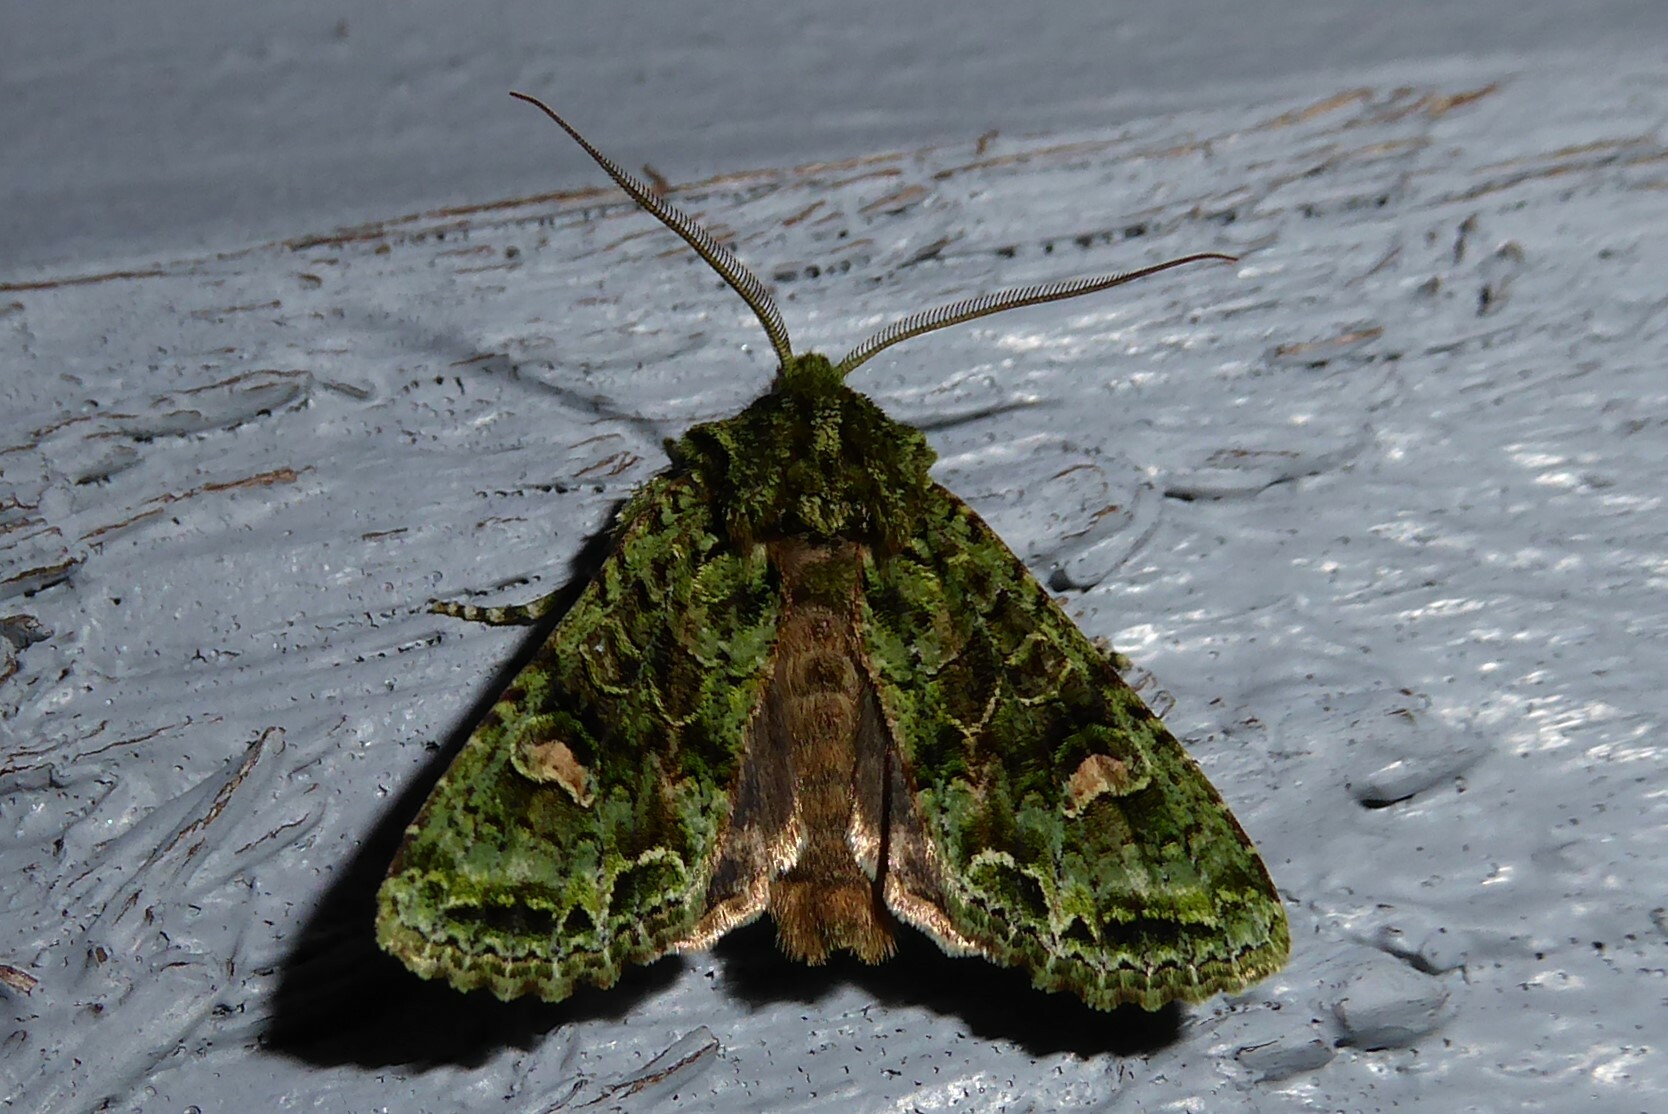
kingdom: Animalia
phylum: Arthropoda
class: Insecta
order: Lepidoptera
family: Noctuidae
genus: Ichneutica
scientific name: Ichneutica
